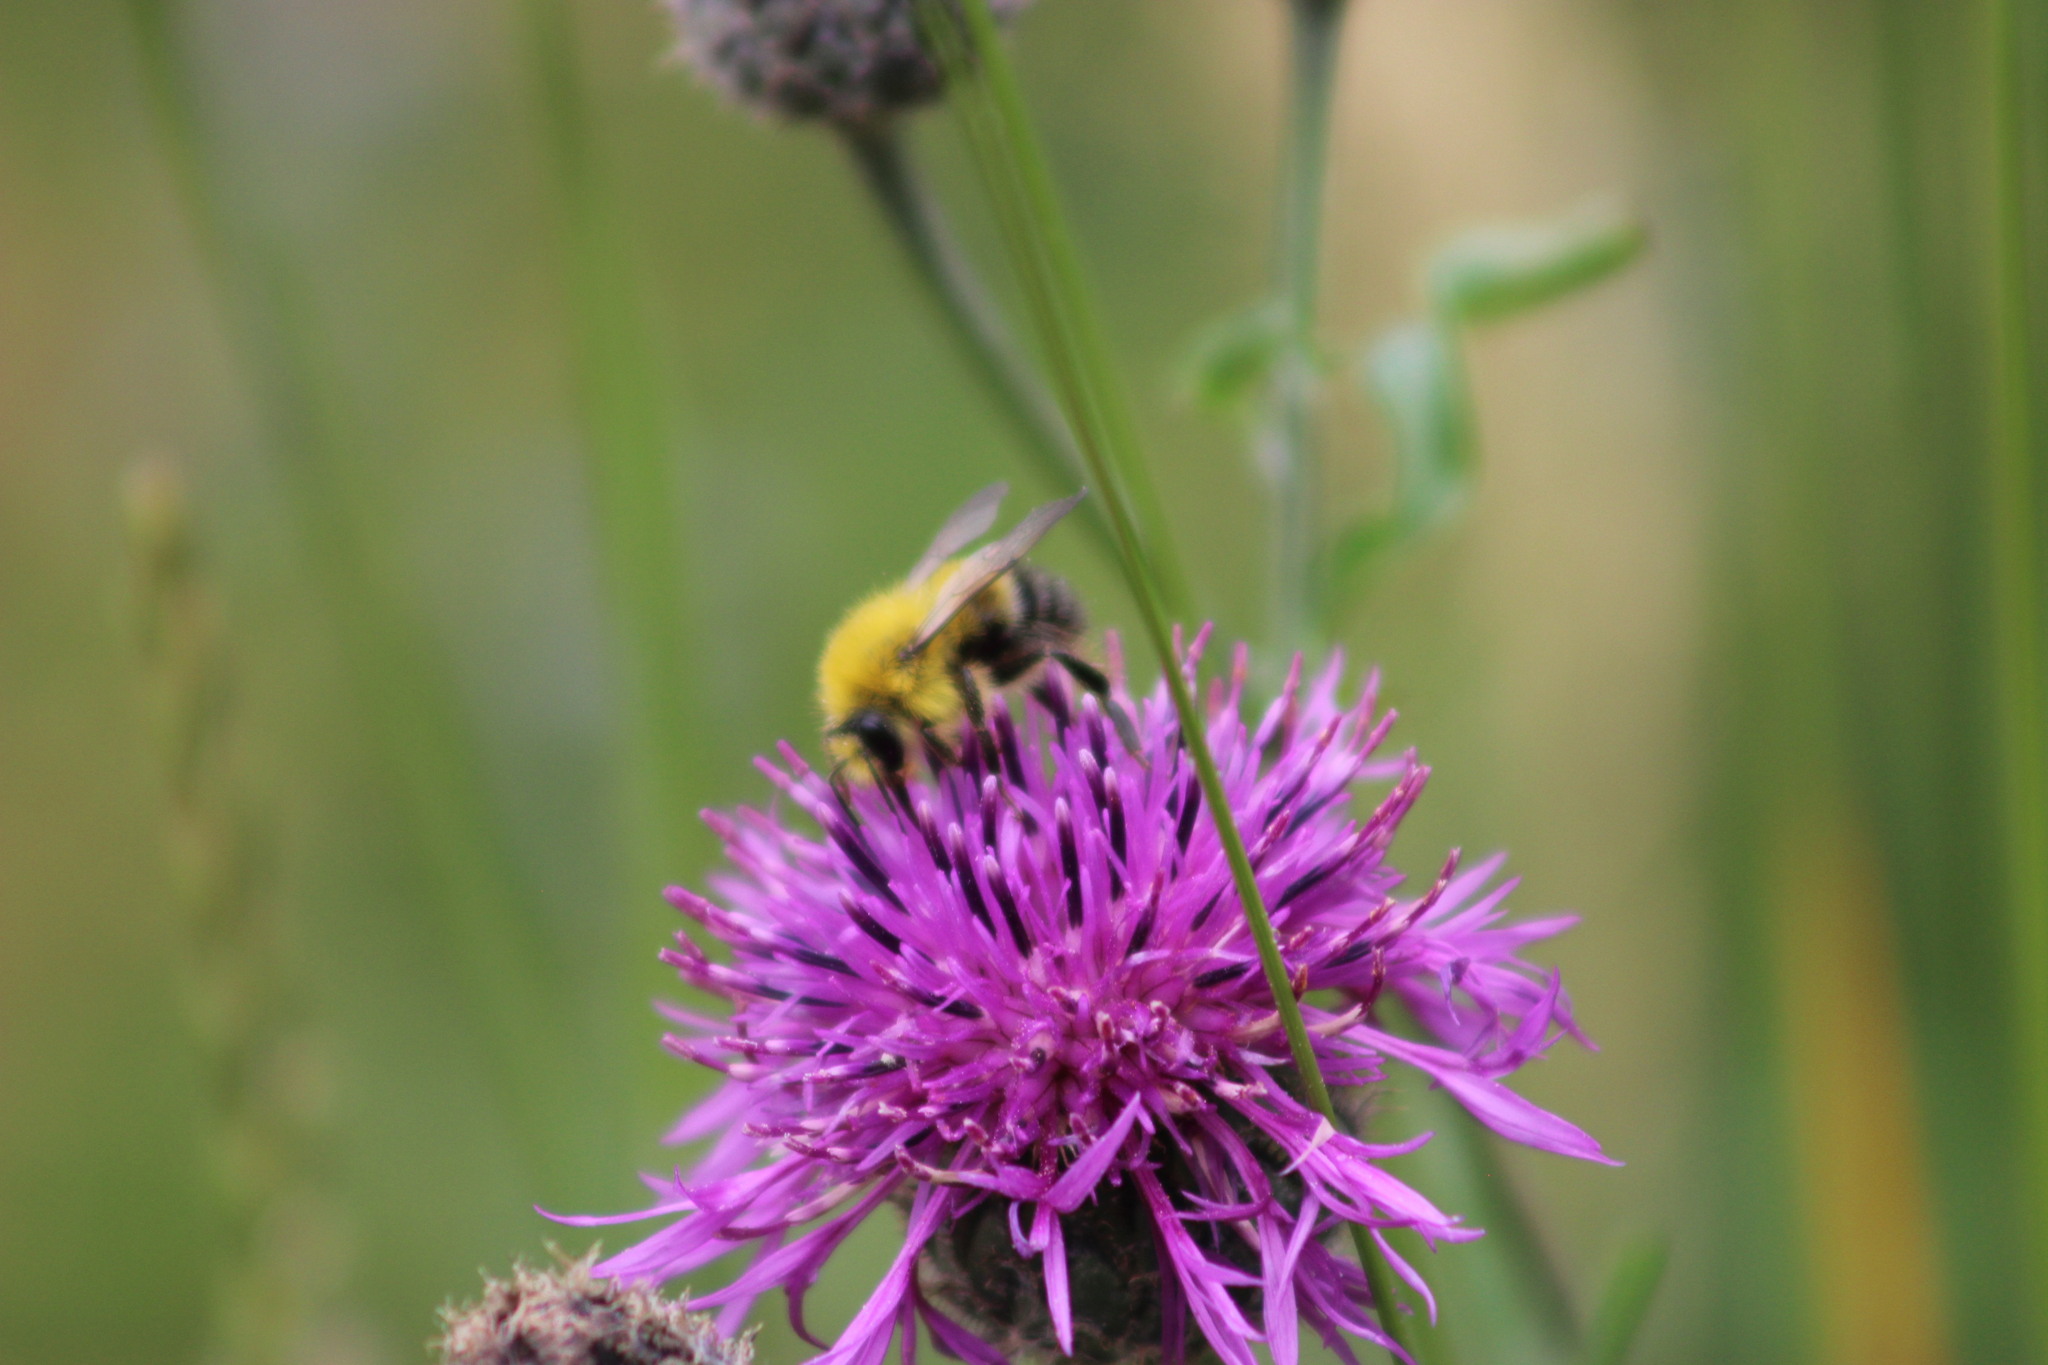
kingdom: Animalia
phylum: Arthropoda
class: Insecta
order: Hymenoptera
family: Apidae
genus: Bombus
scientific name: Bombus modestus
